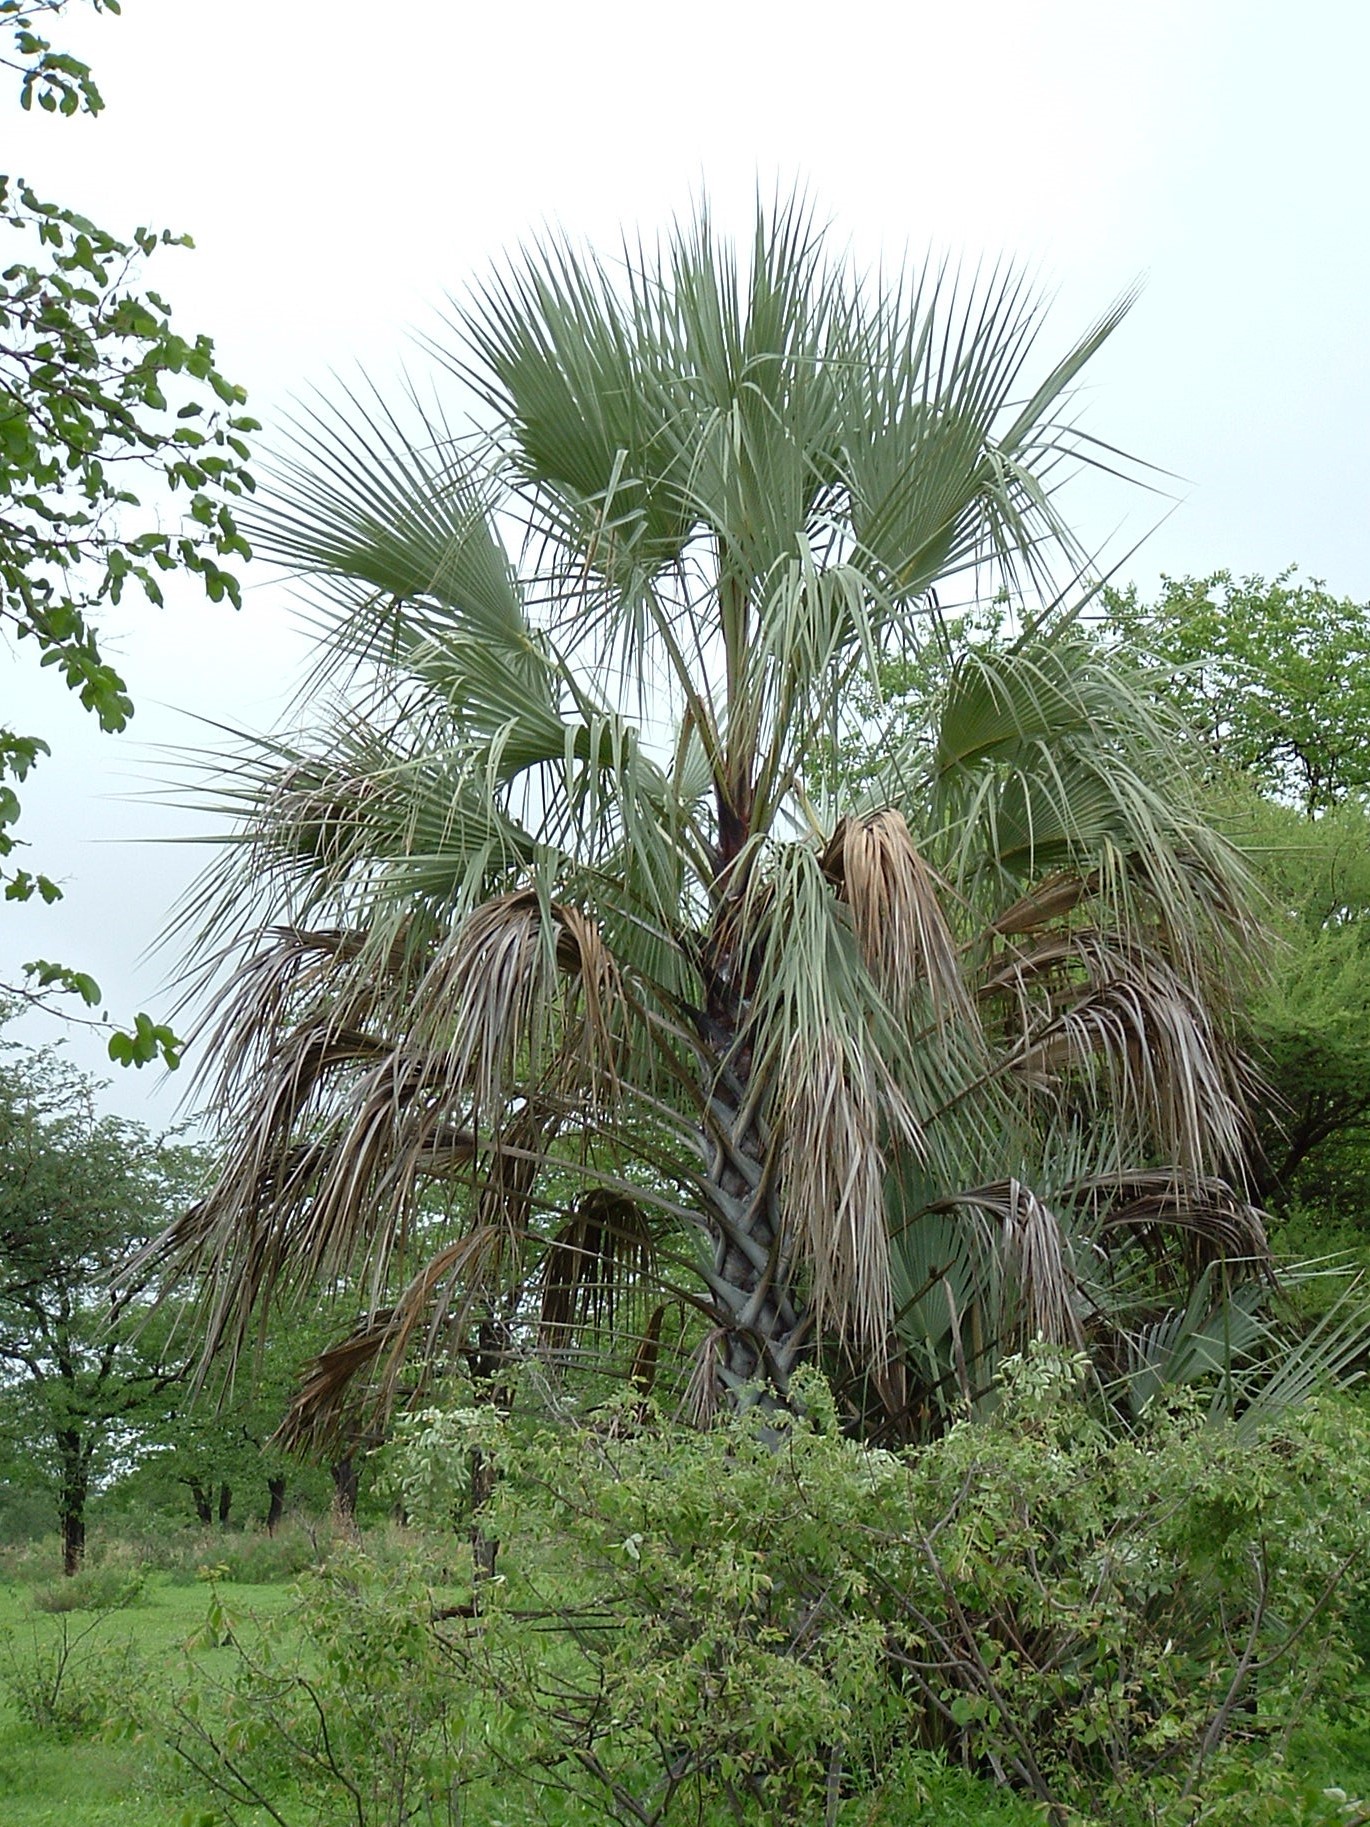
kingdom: Plantae
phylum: Tracheophyta
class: Liliopsida
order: Arecales
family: Arecaceae
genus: Hyphaene
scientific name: Hyphaene petersiana
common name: African ivory nut palm
